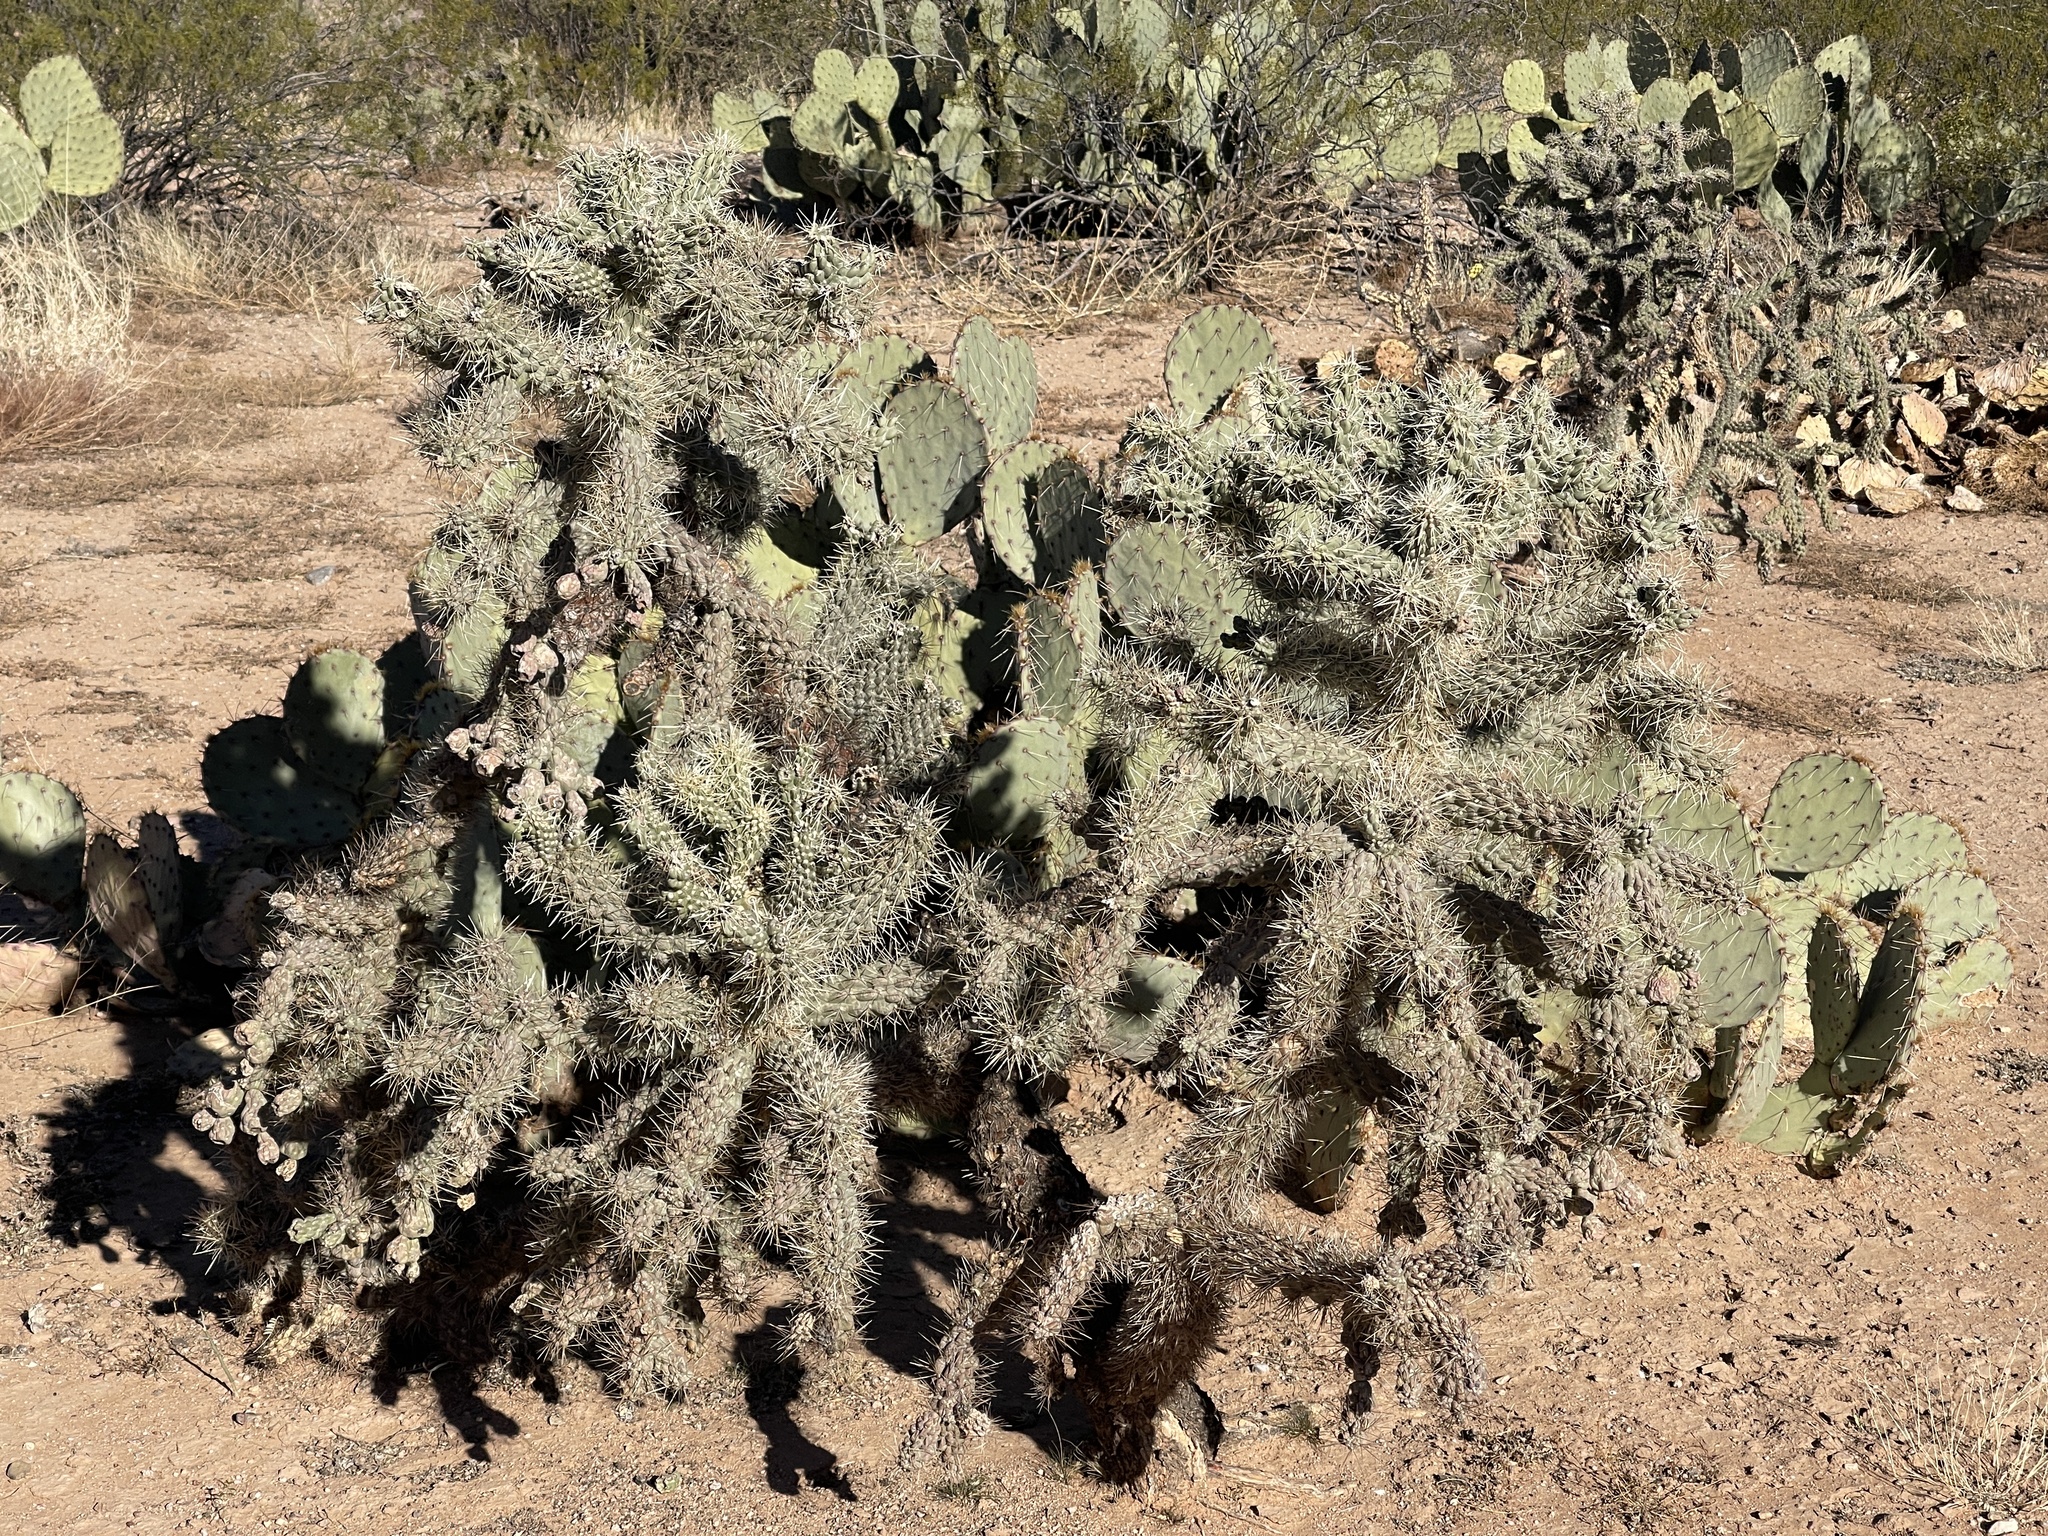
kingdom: Plantae
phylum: Tracheophyta
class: Magnoliopsida
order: Caryophyllales
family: Cactaceae
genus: Cylindropuntia
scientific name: Cylindropuntia fulgida
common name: Jumping cholla
